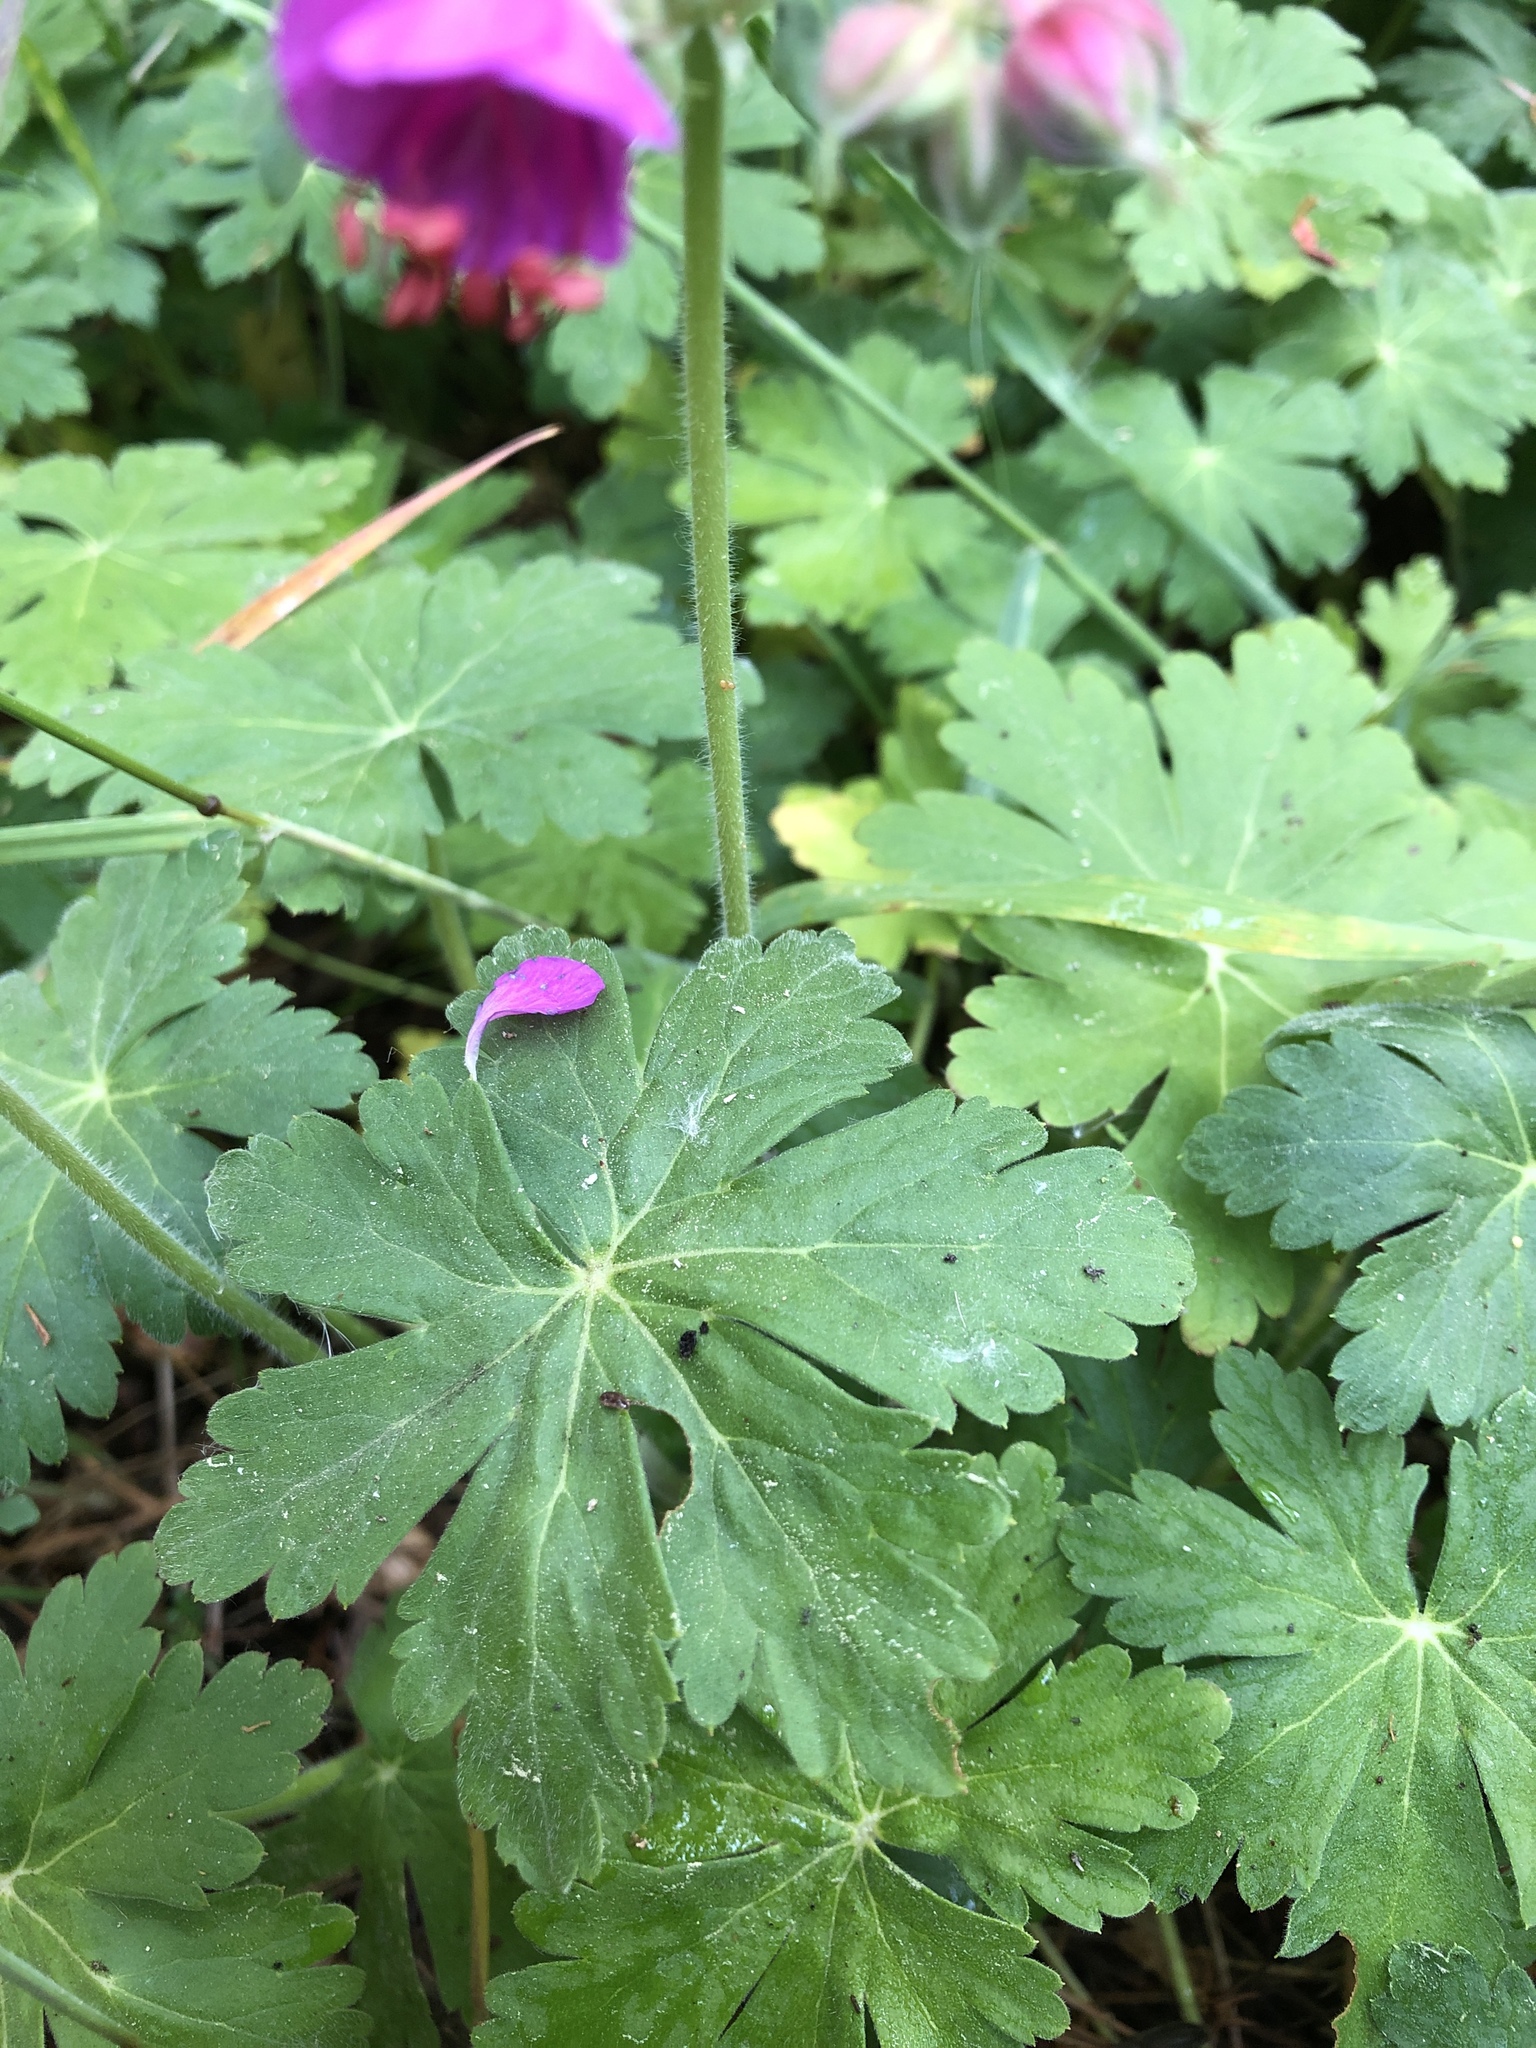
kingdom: Plantae
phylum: Tracheophyta
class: Magnoliopsida
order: Geraniales
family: Geraniaceae
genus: Geranium
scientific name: Geranium macrorrhizum
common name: Rock crane's-bill
